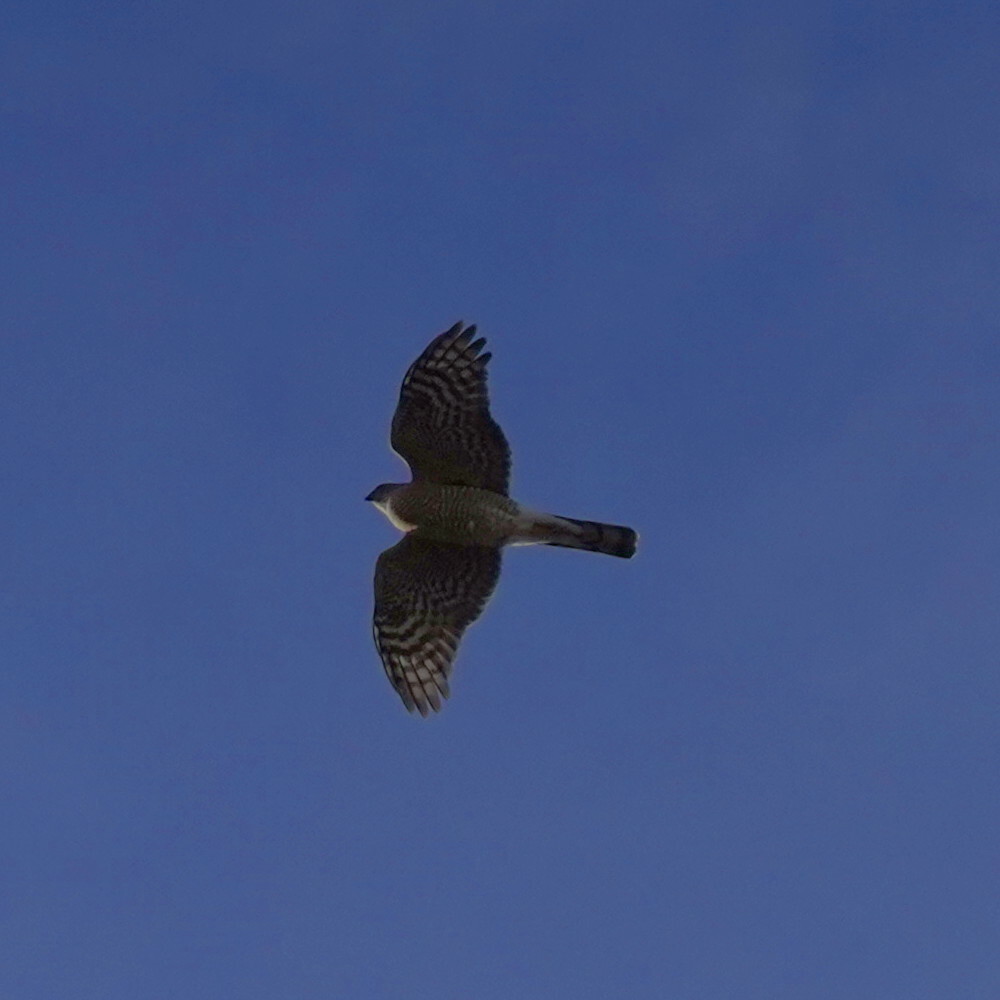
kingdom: Animalia
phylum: Chordata
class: Aves
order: Accipitriformes
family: Accipitridae
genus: Accipiter
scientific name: Accipiter striatus
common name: Sharp-shinned hawk
